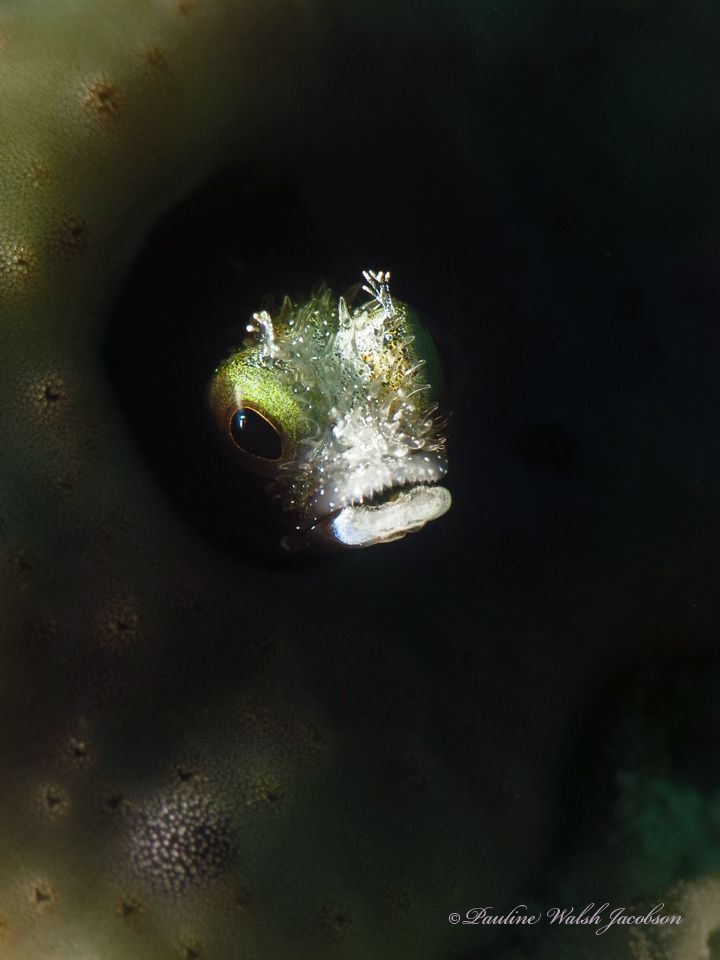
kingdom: Animalia
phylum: Chordata
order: Perciformes
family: Chaenopsidae
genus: Acanthemblemaria
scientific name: Acanthemblemaria spinosa
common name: Spinyhead blenny
